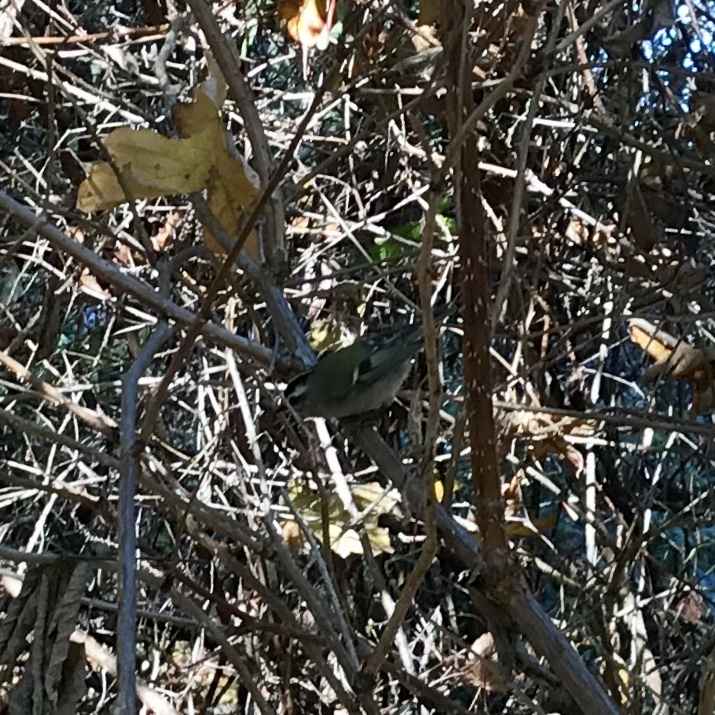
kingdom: Animalia
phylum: Chordata
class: Aves
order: Passeriformes
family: Regulidae
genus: Regulus
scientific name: Regulus satrapa
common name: Golden-crowned kinglet
